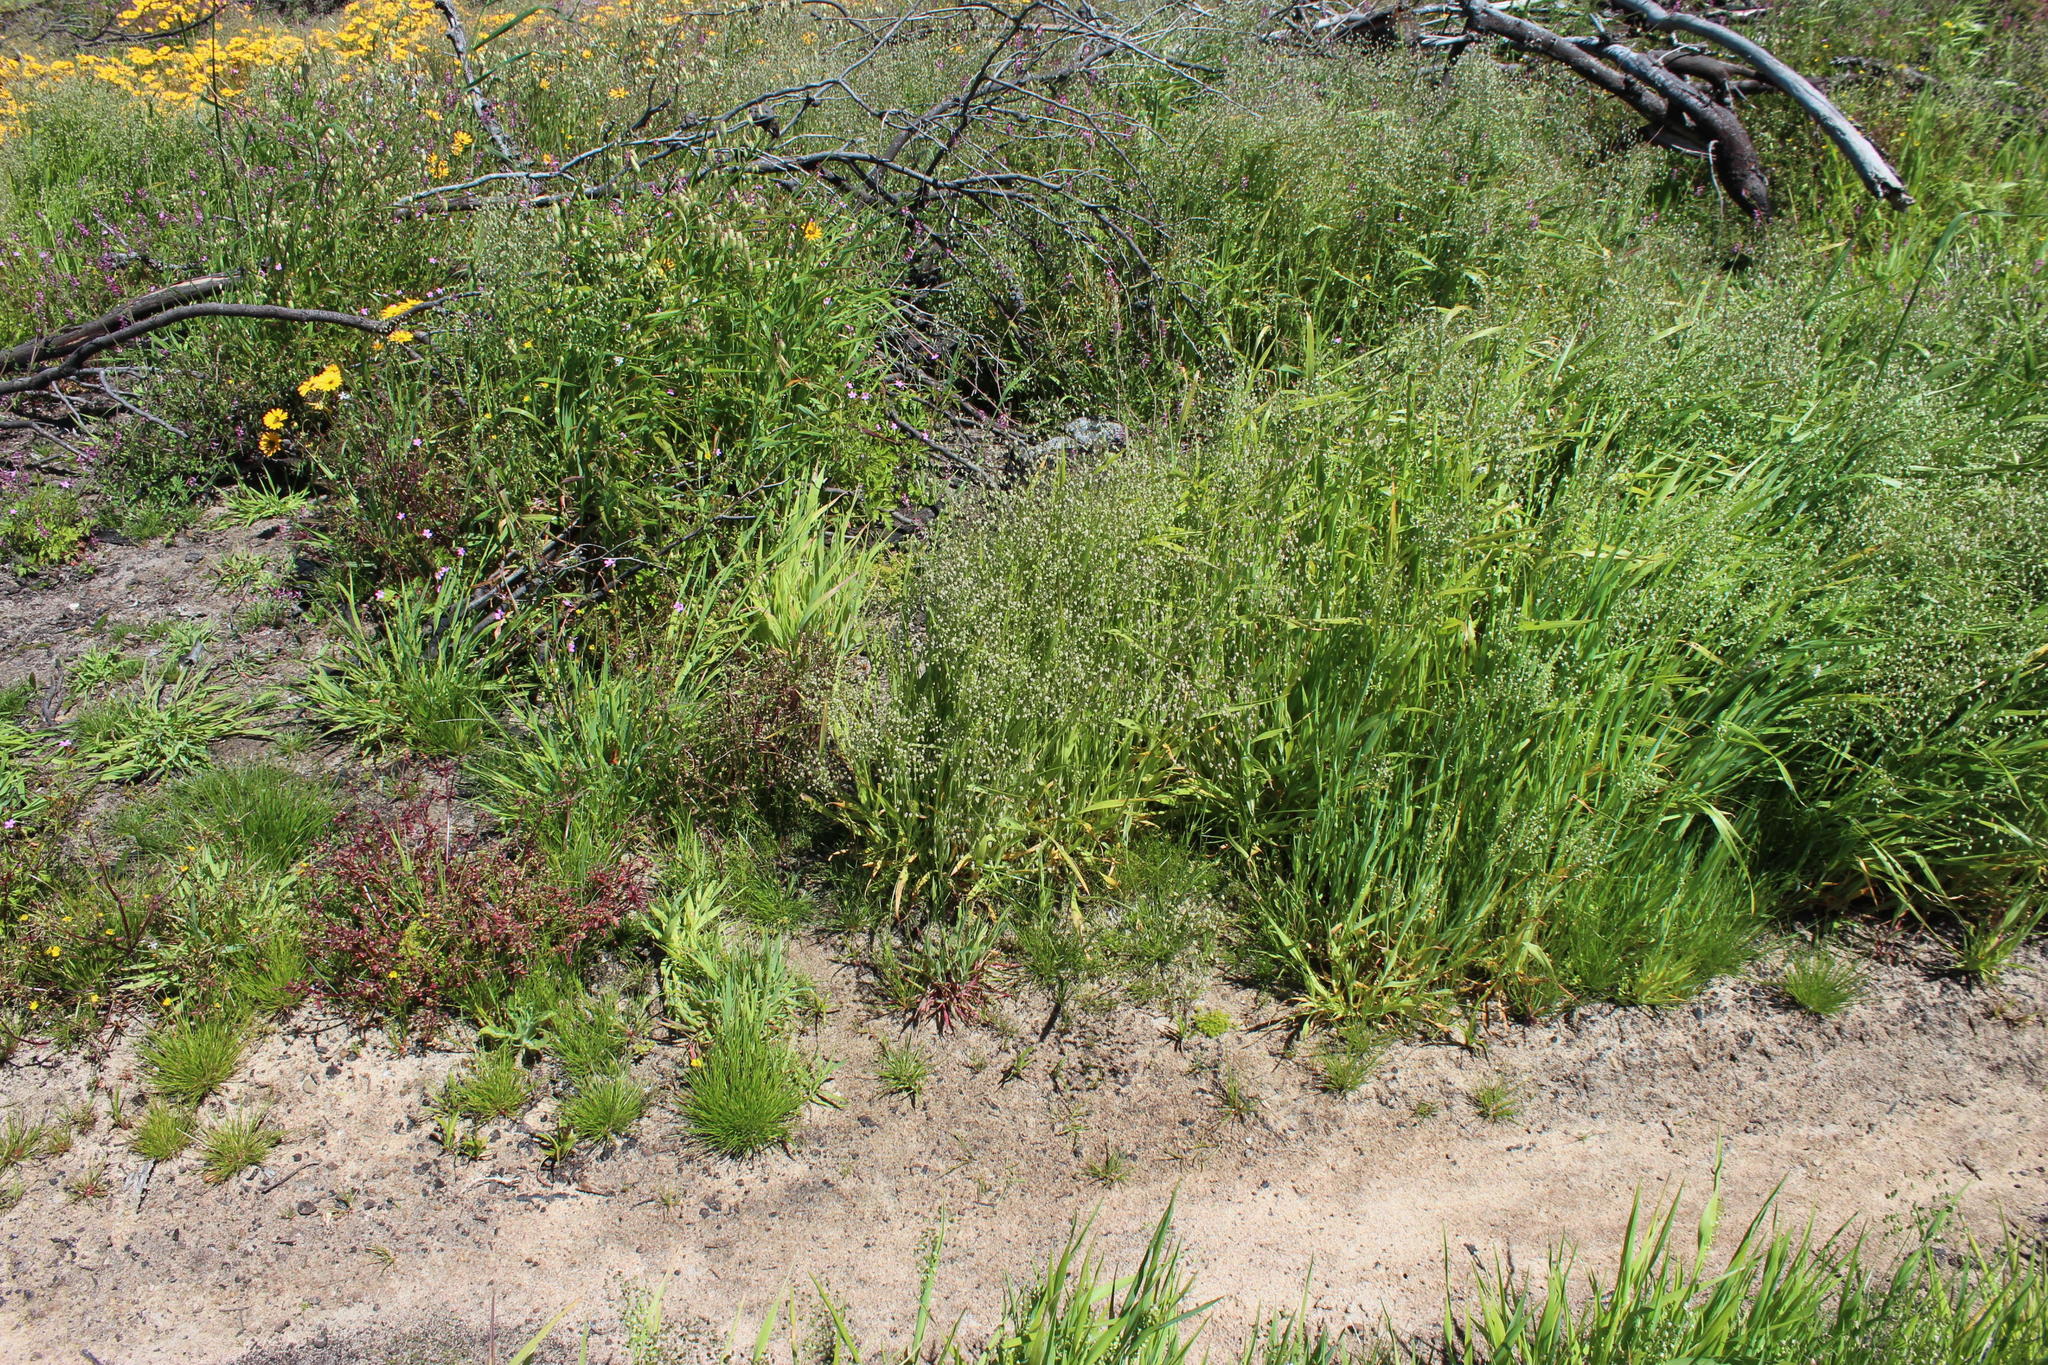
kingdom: Plantae
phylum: Tracheophyta
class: Liliopsida
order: Poales
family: Poaceae
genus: Briza
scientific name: Briza minor
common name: Lesser quaking-grass
